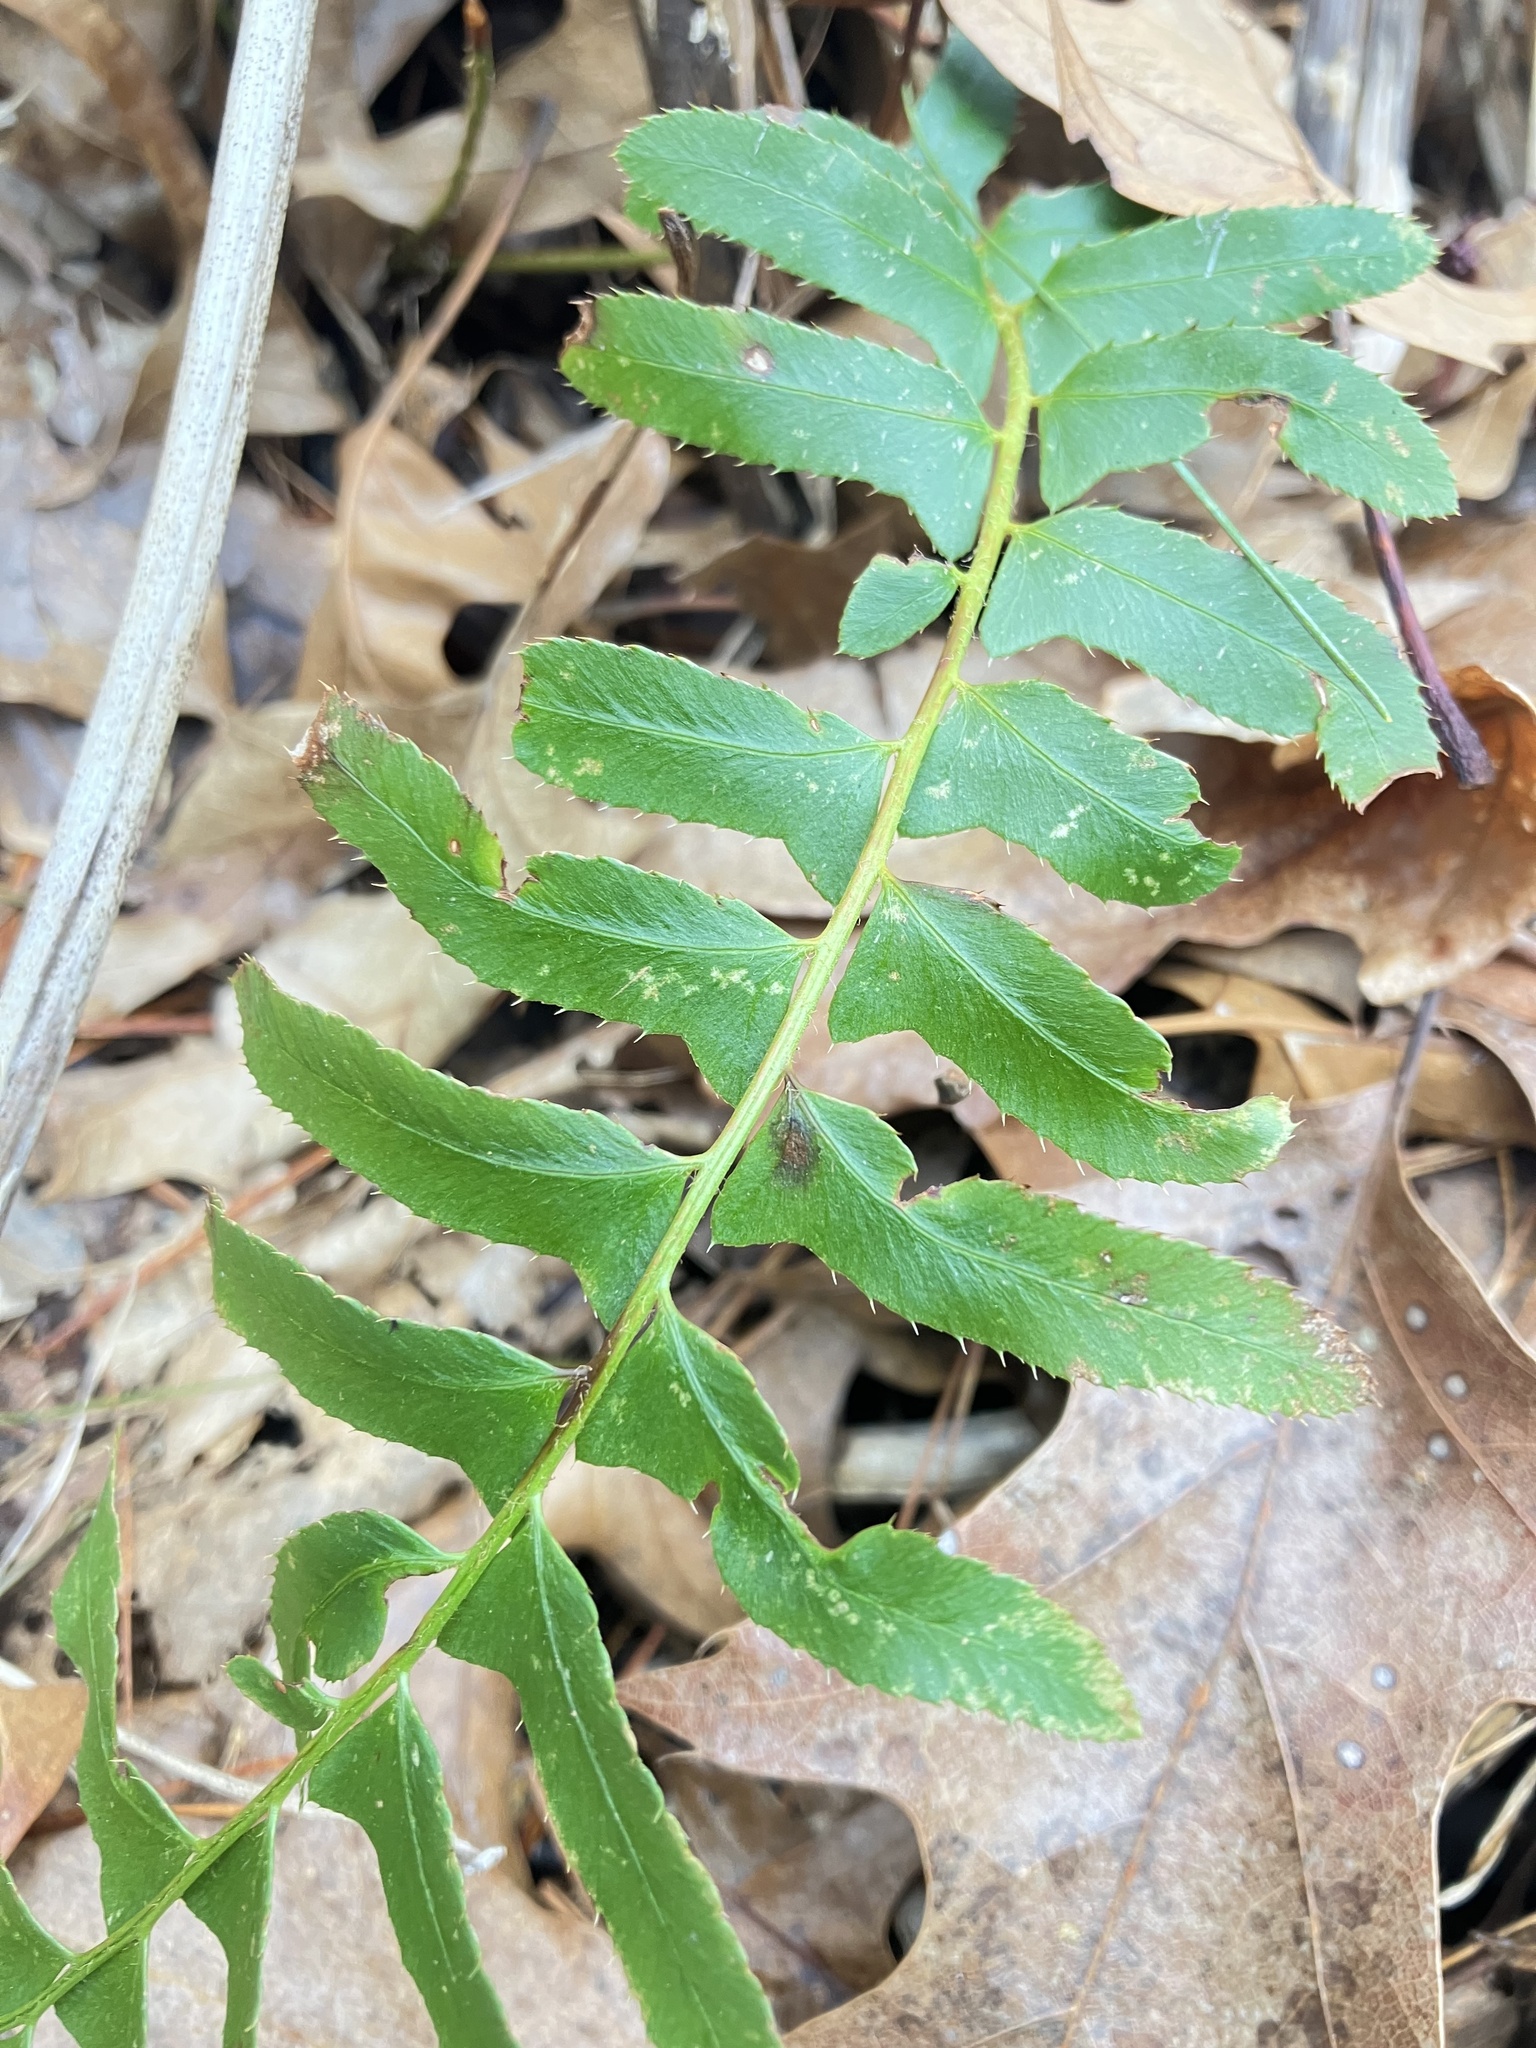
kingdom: Plantae
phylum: Tracheophyta
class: Polypodiopsida
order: Polypodiales
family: Dryopteridaceae
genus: Polystichum
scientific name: Polystichum acrostichoides
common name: Christmas fern
